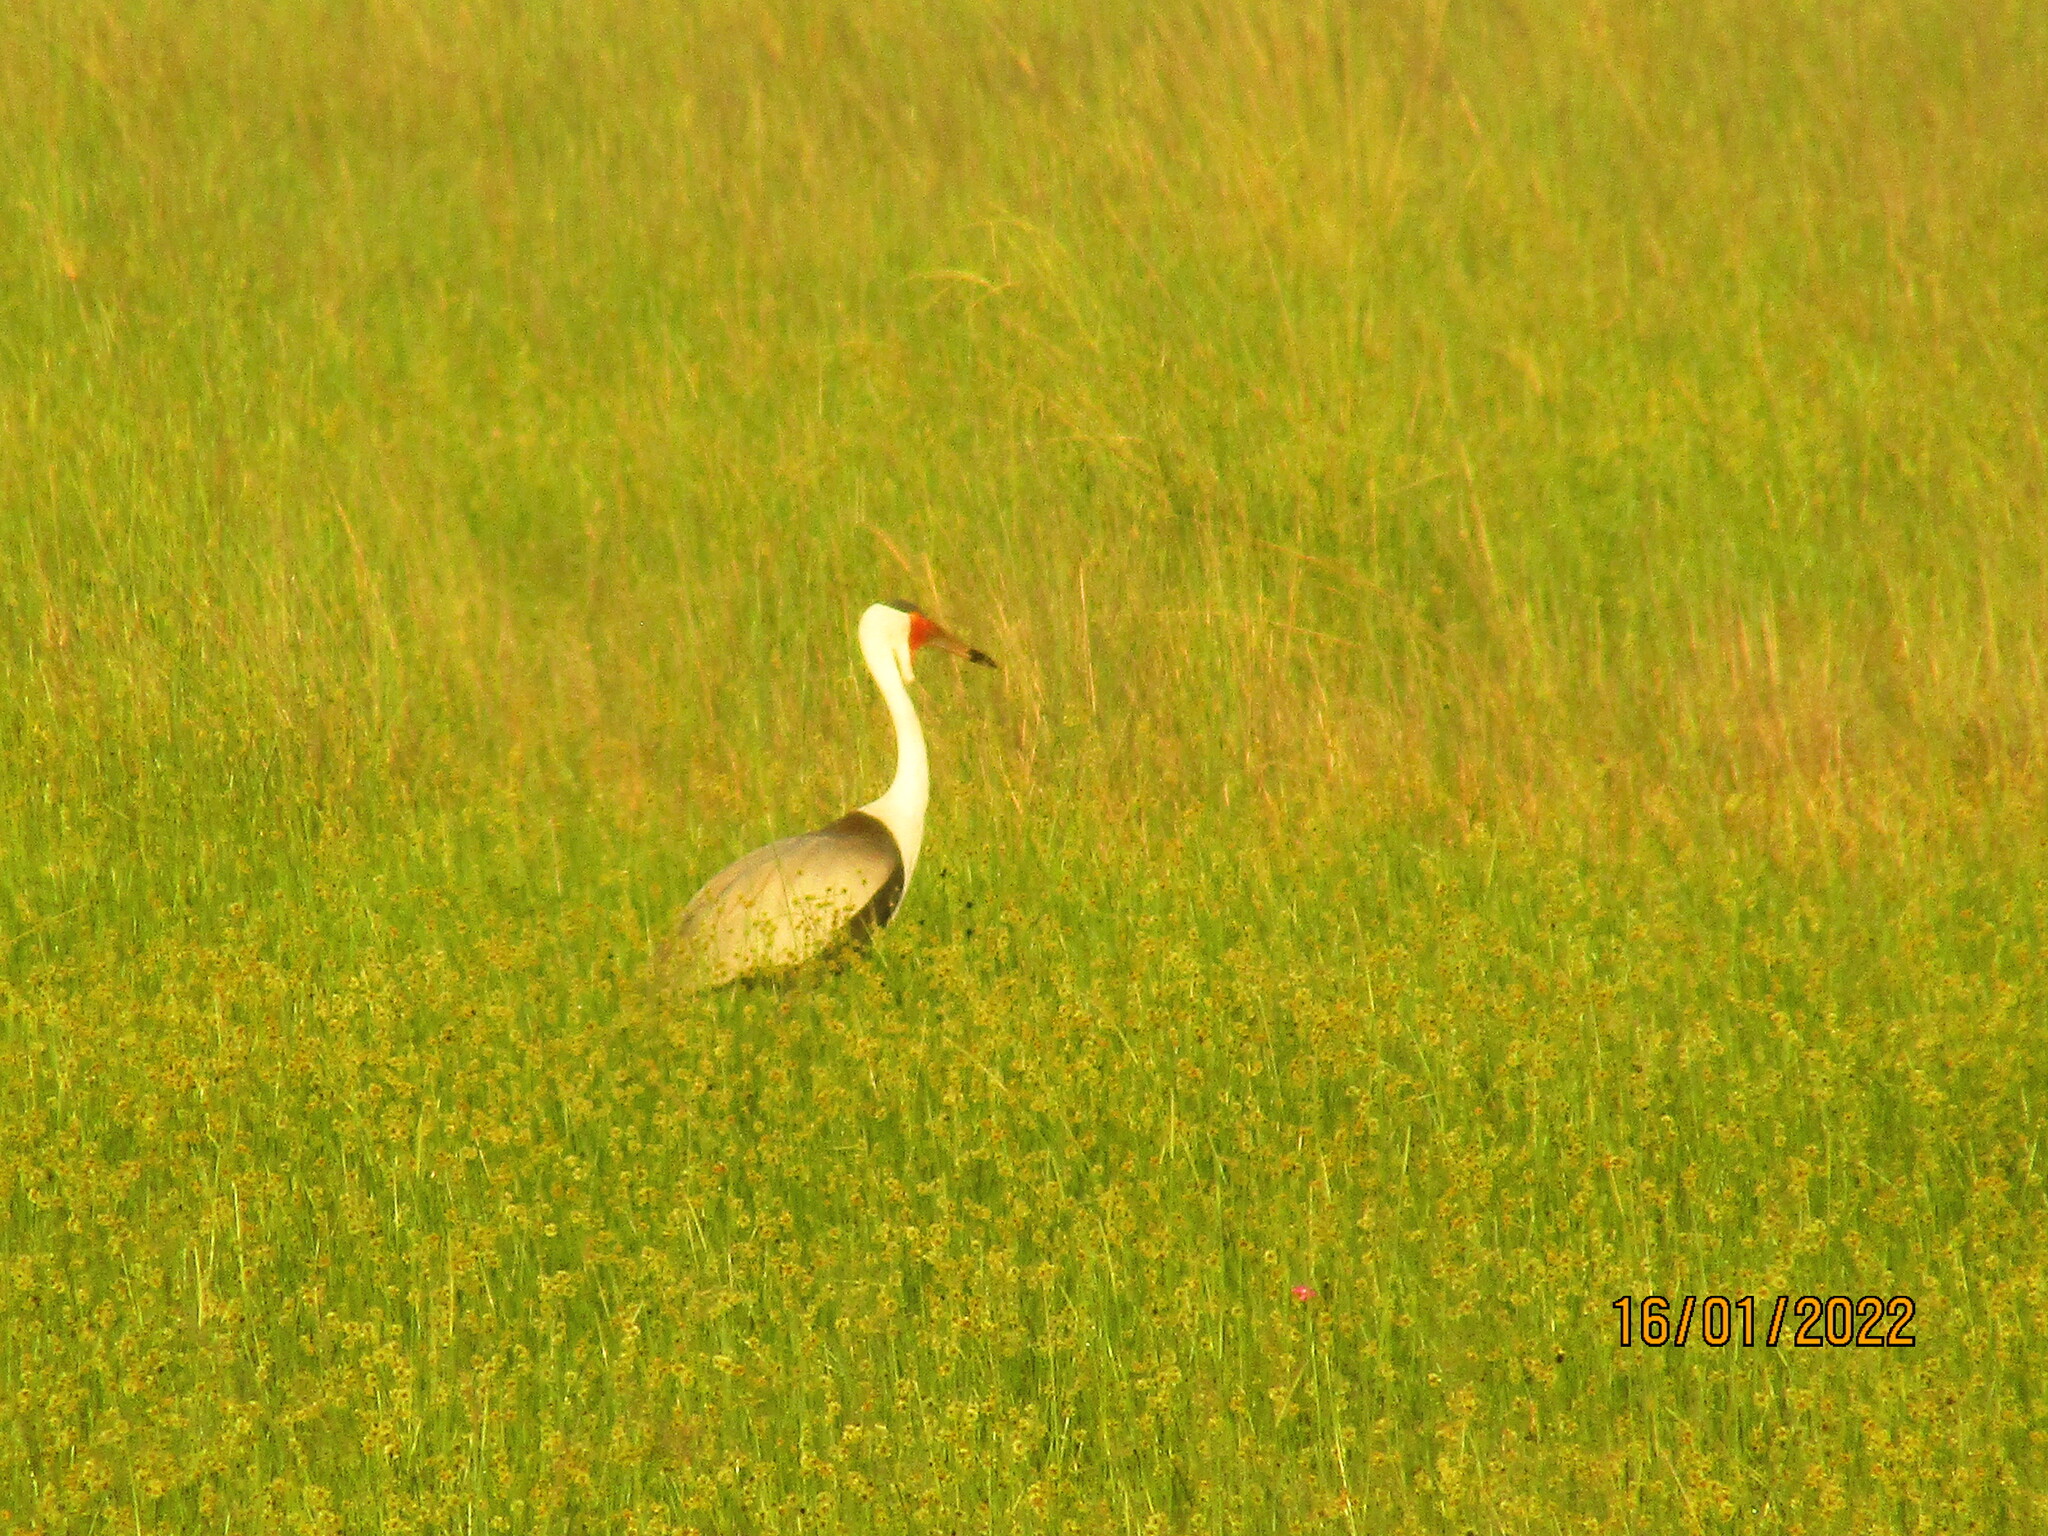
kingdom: Animalia
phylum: Chordata
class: Aves
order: Gruiformes
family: Gruidae
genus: Bugeranus
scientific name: Bugeranus carunculatus
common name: Wattled crane
